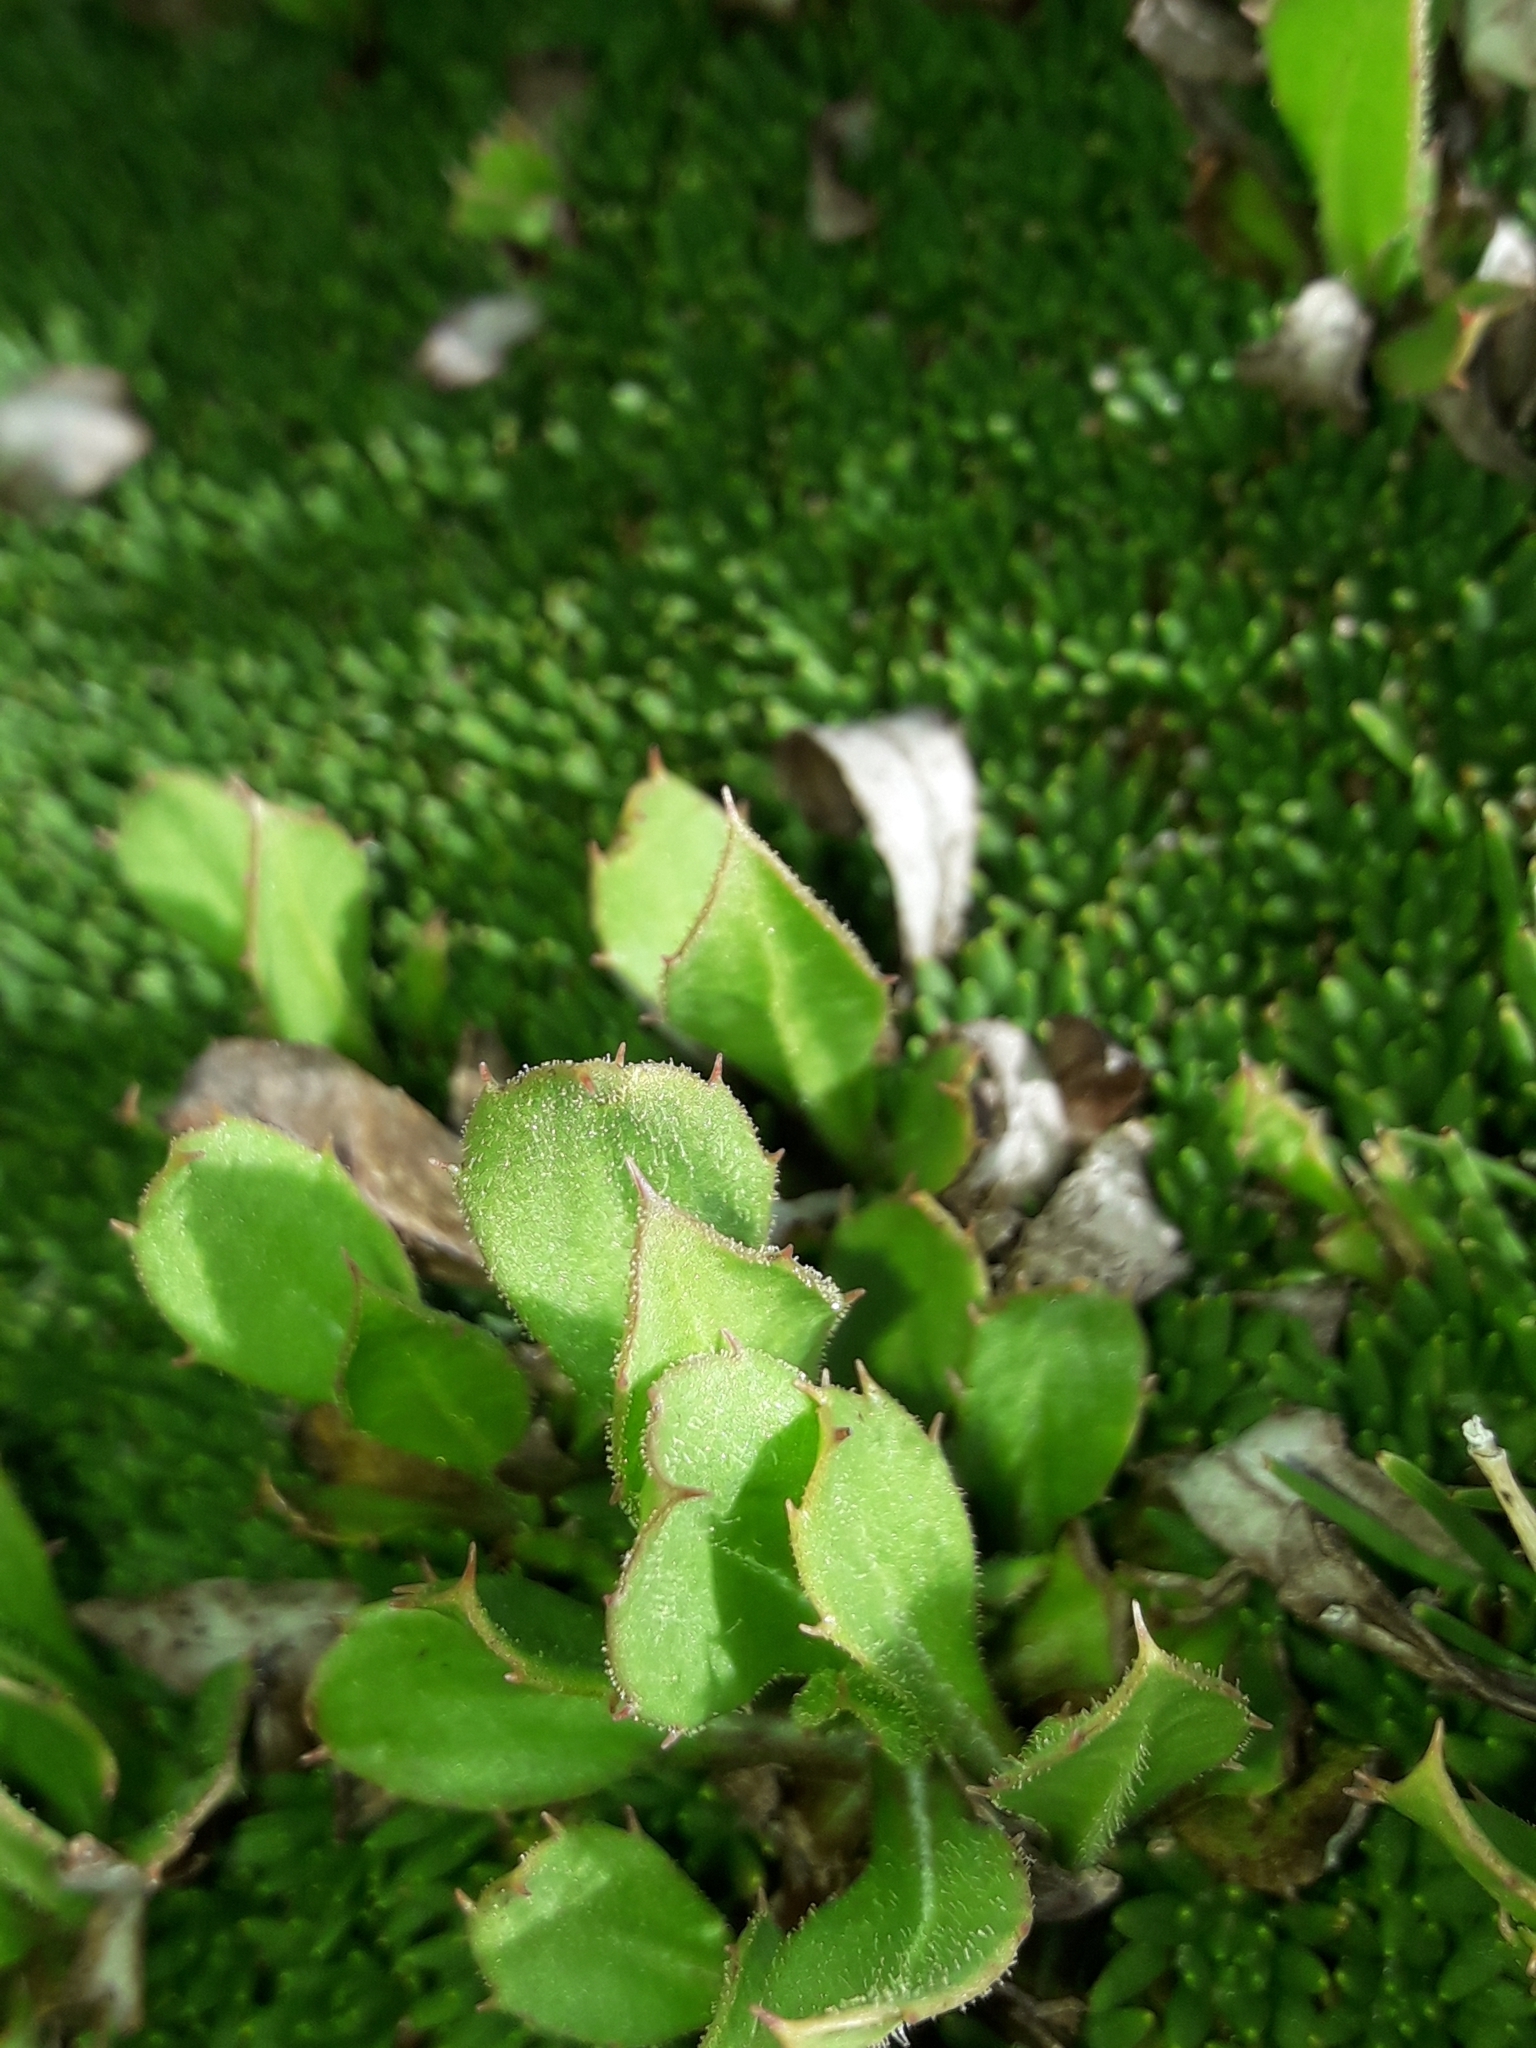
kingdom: Plantae
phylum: Tracheophyta
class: Magnoliopsida
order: Asterales
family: Asteraceae
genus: Celmisia
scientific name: Celmisia glandulosa
